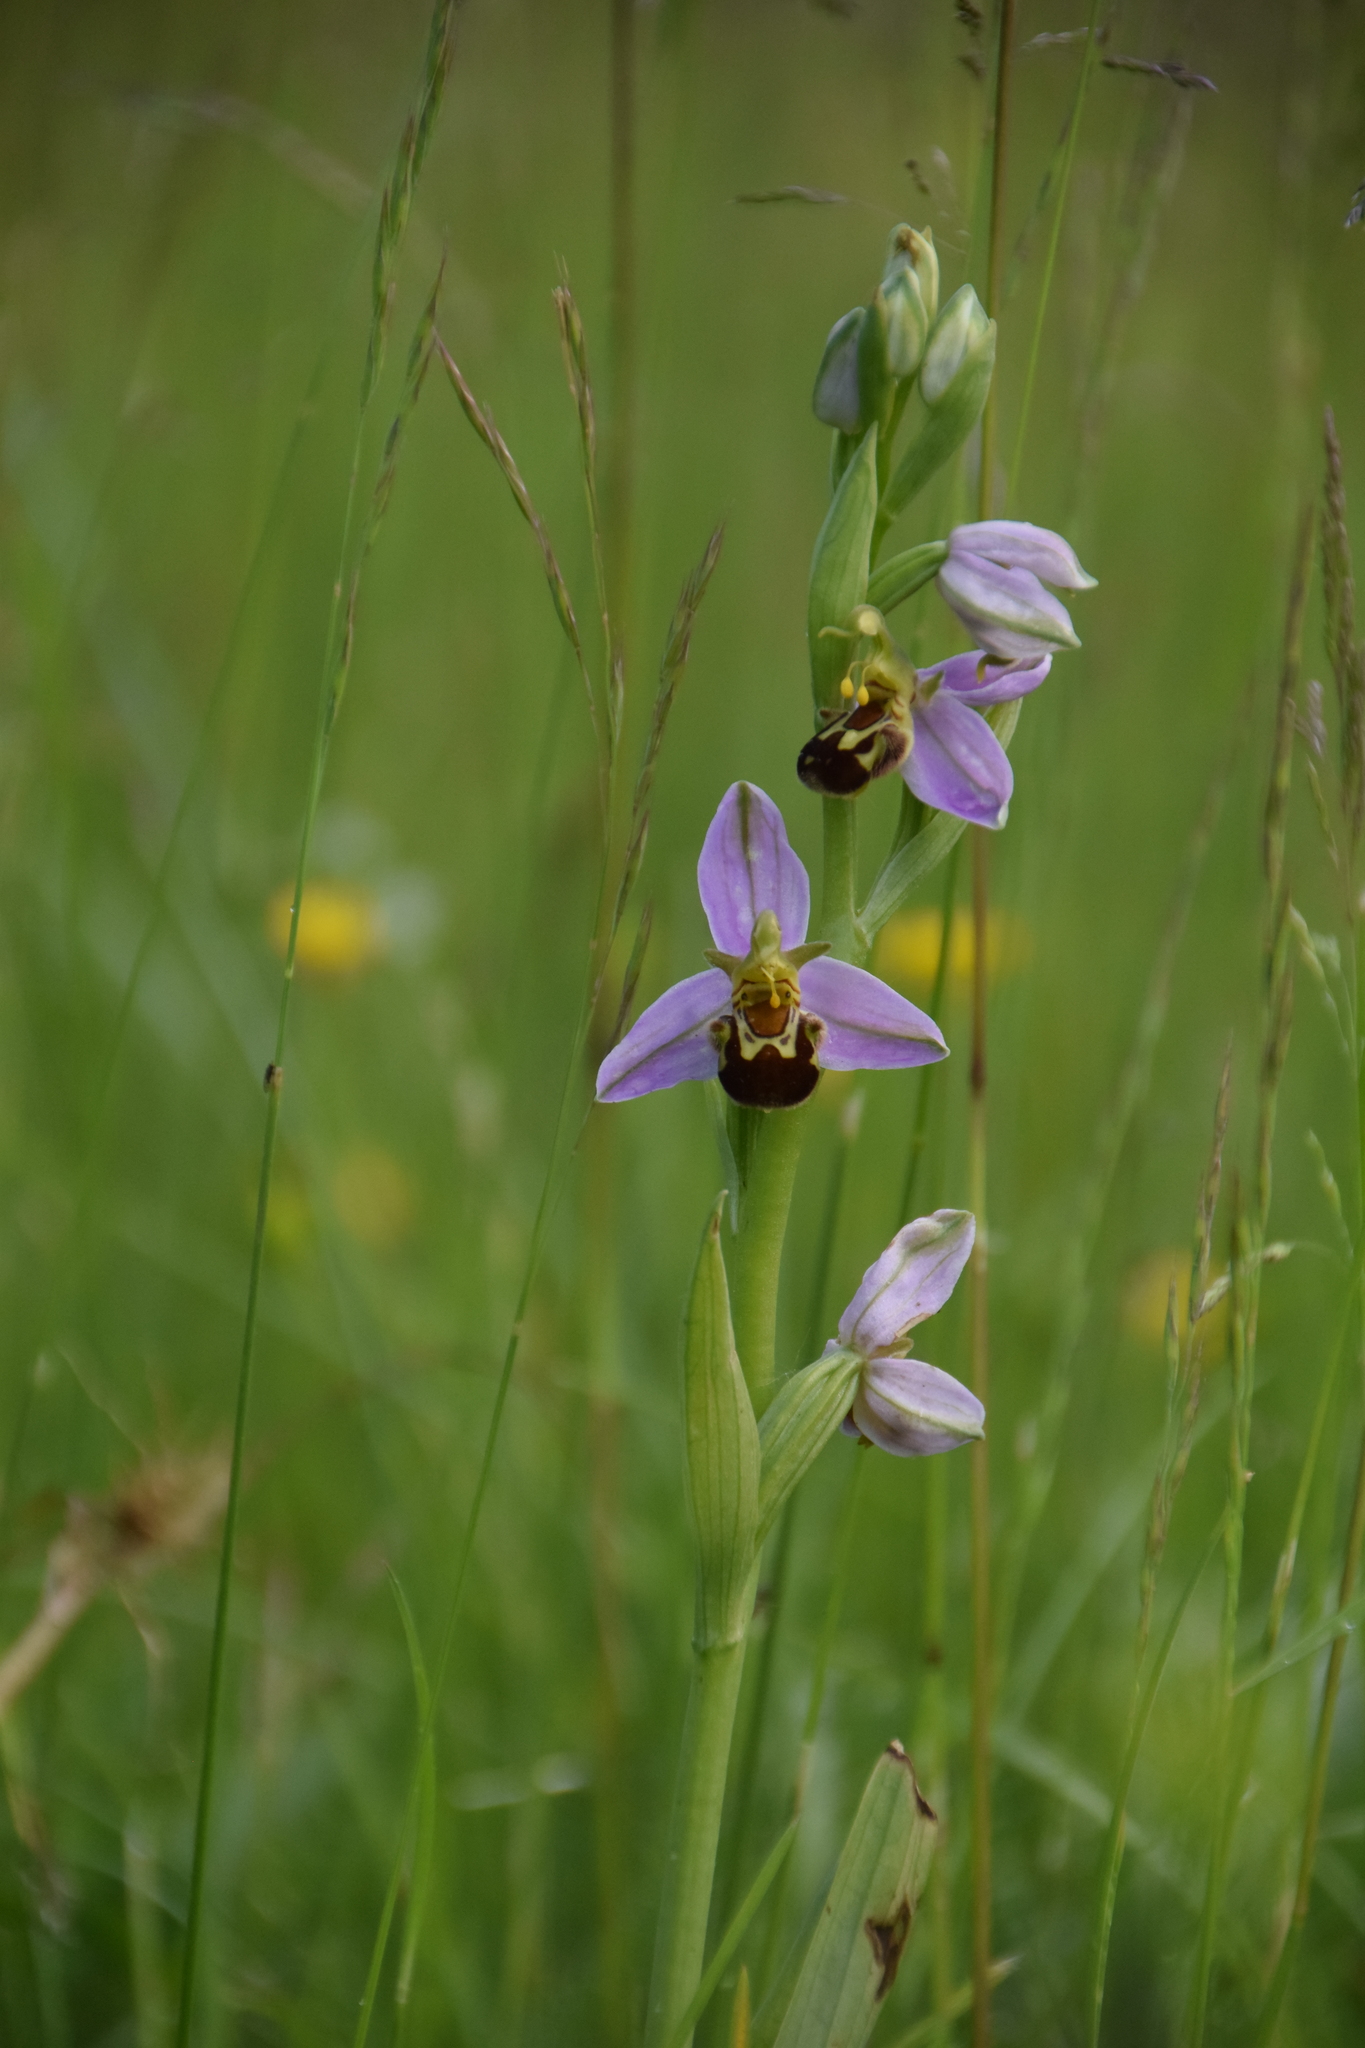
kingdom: Plantae
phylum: Tracheophyta
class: Liliopsida
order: Asparagales
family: Orchidaceae
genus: Ophrys
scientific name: Ophrys apifera
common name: Bee orchid
